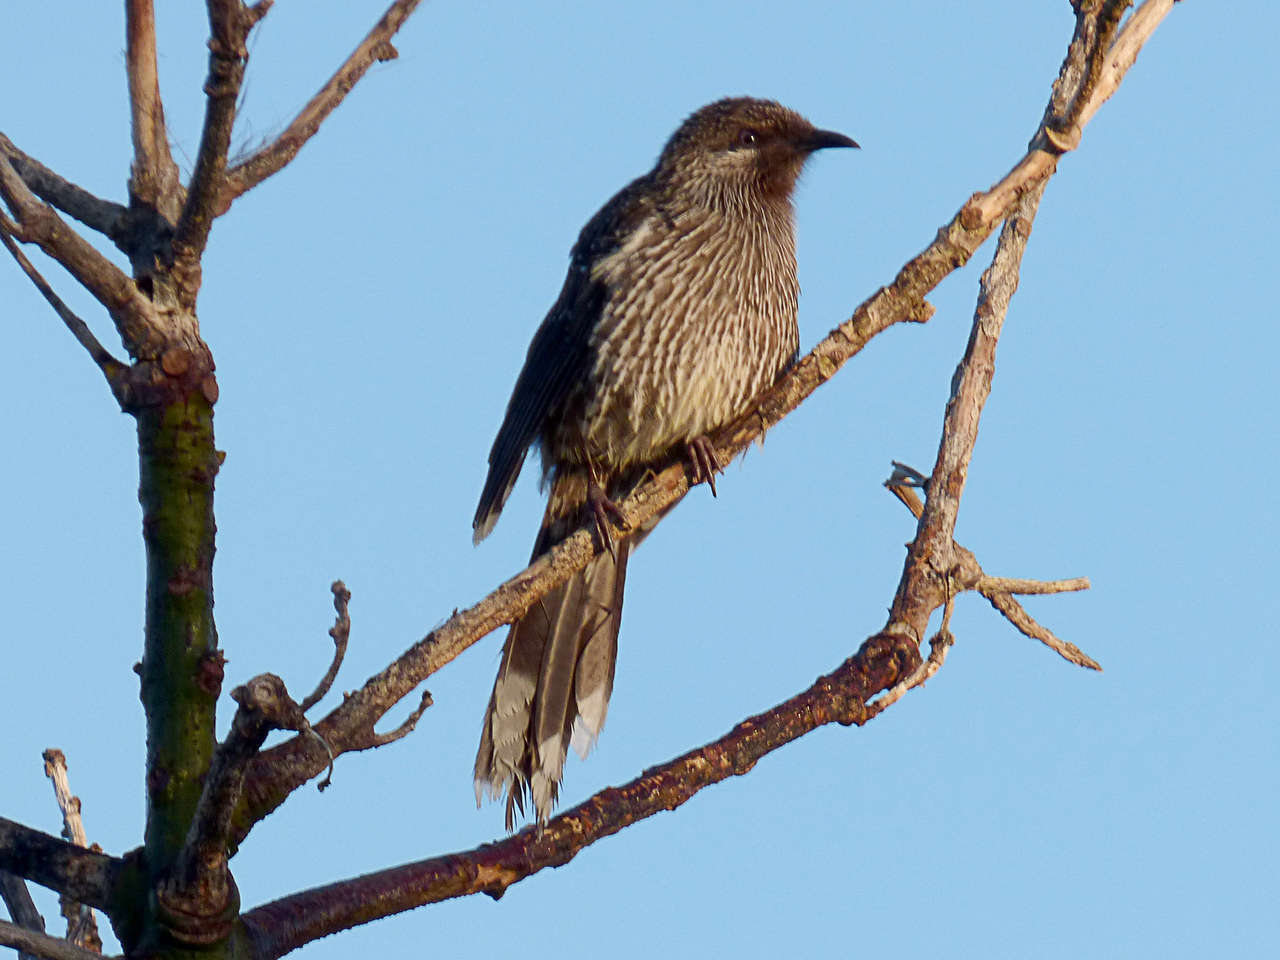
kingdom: Animalia
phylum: Chordata
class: Aves
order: Passeriformes
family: Meliphagidae
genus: Anthochaera
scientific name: Anthochaera chrysoptera
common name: Little wattlebird
